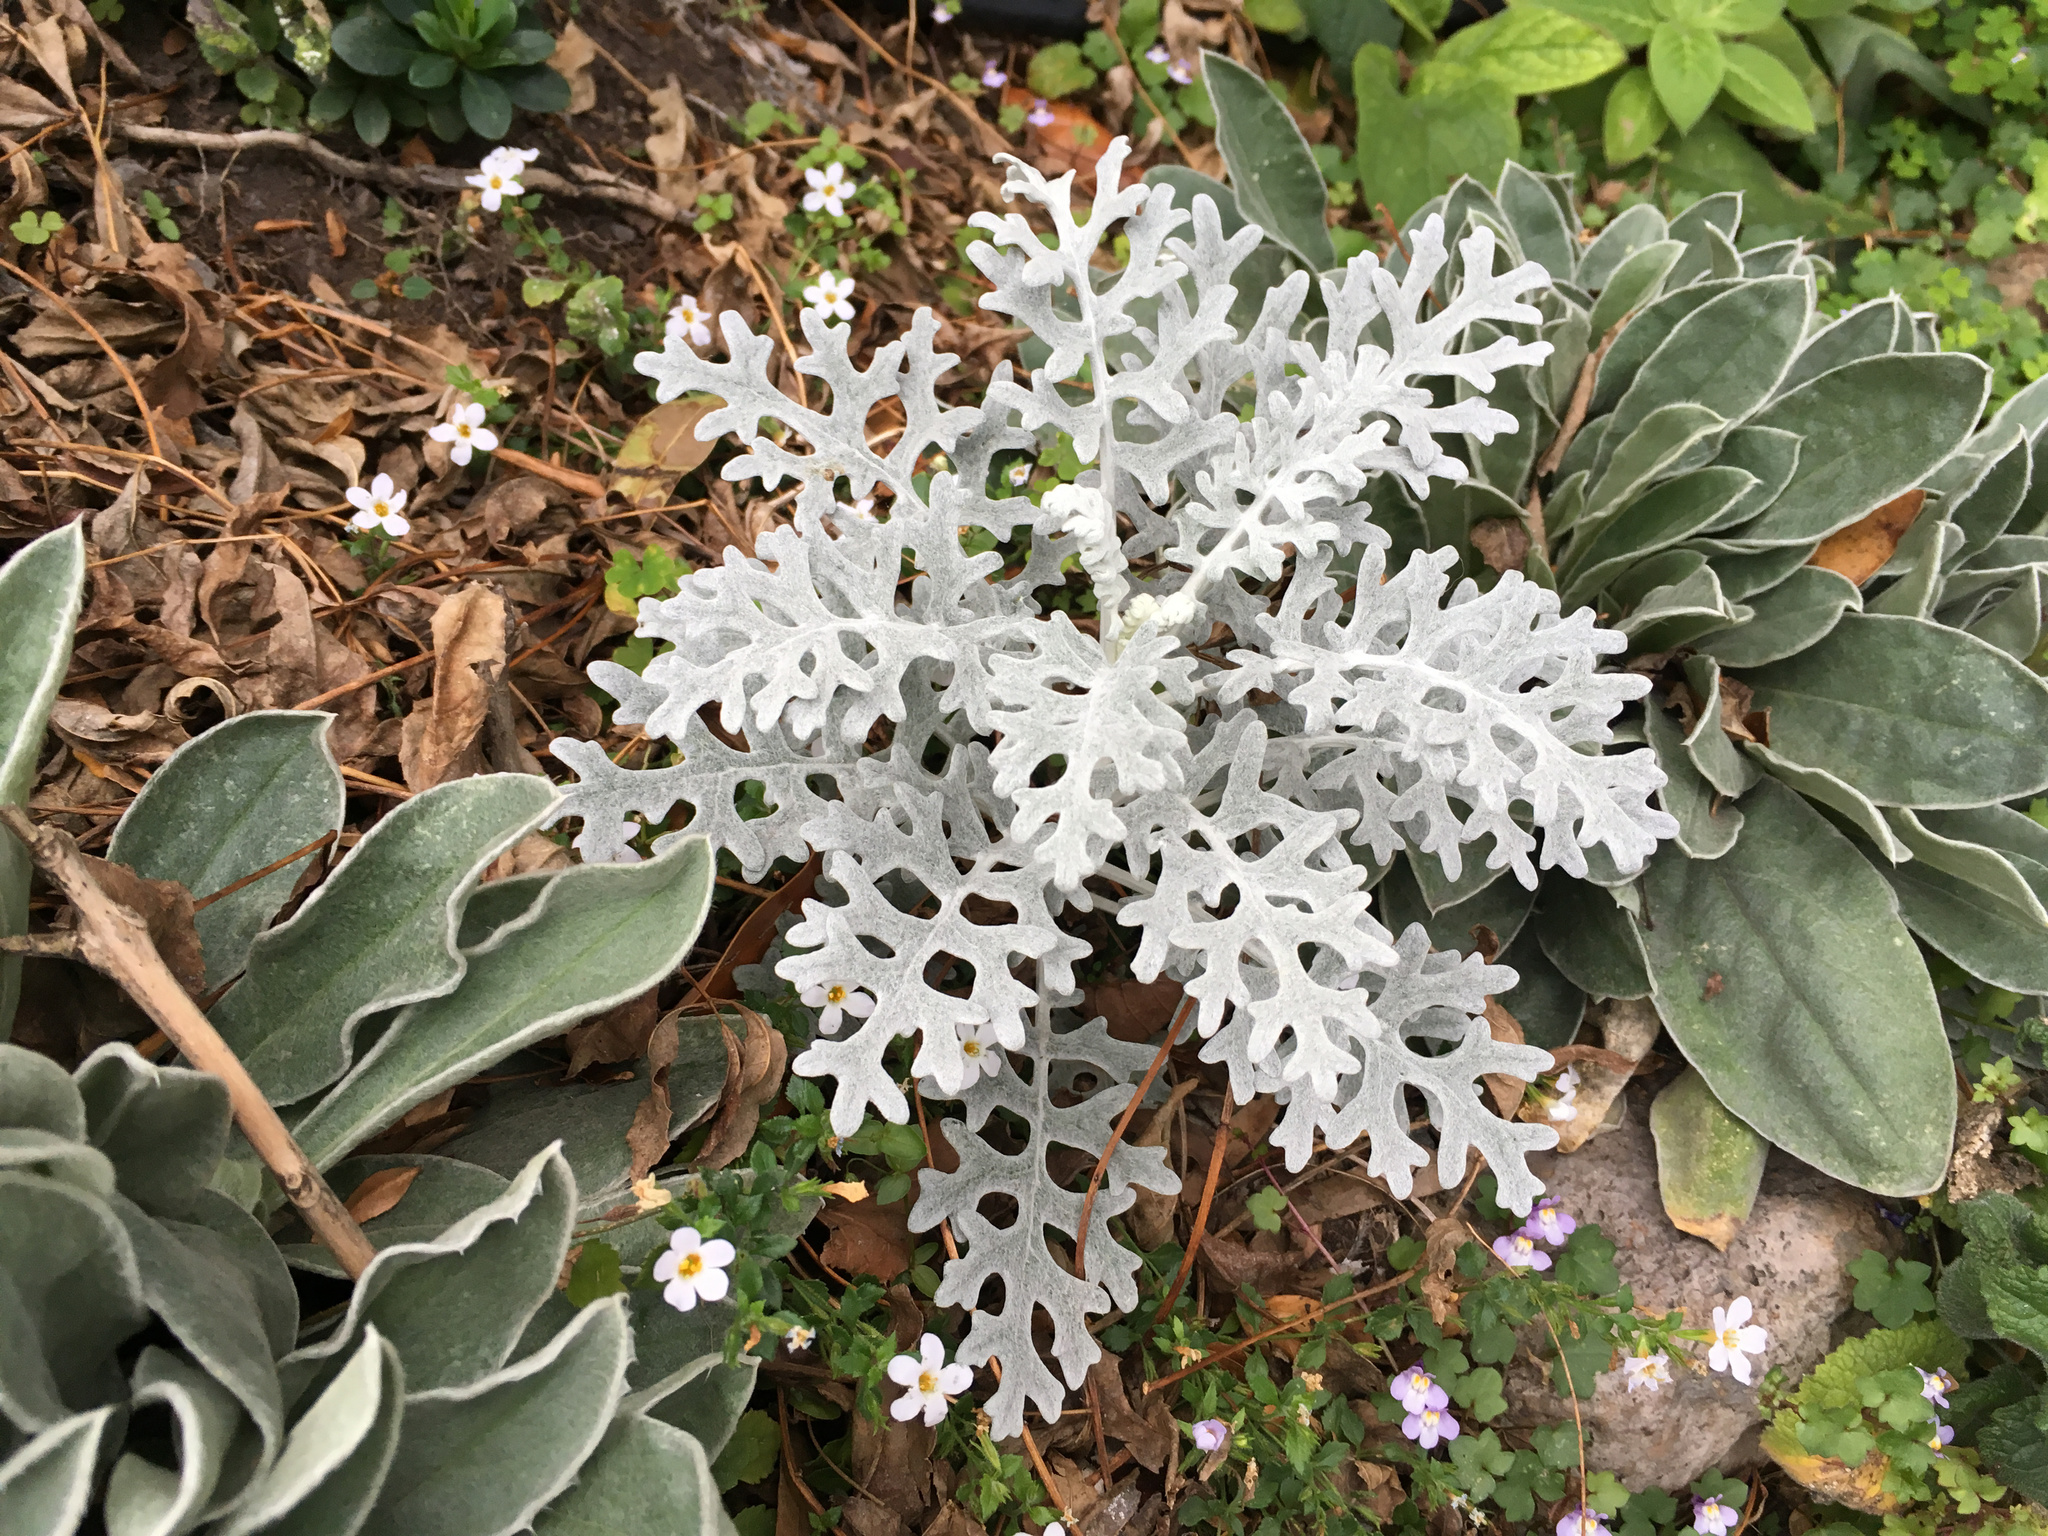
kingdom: Plantae
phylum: Tracheophyta
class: Magnoliopsida
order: Asterales
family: Asteraceae
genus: Jacobaea
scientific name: Jacobaea maritima
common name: Silver ragwort
